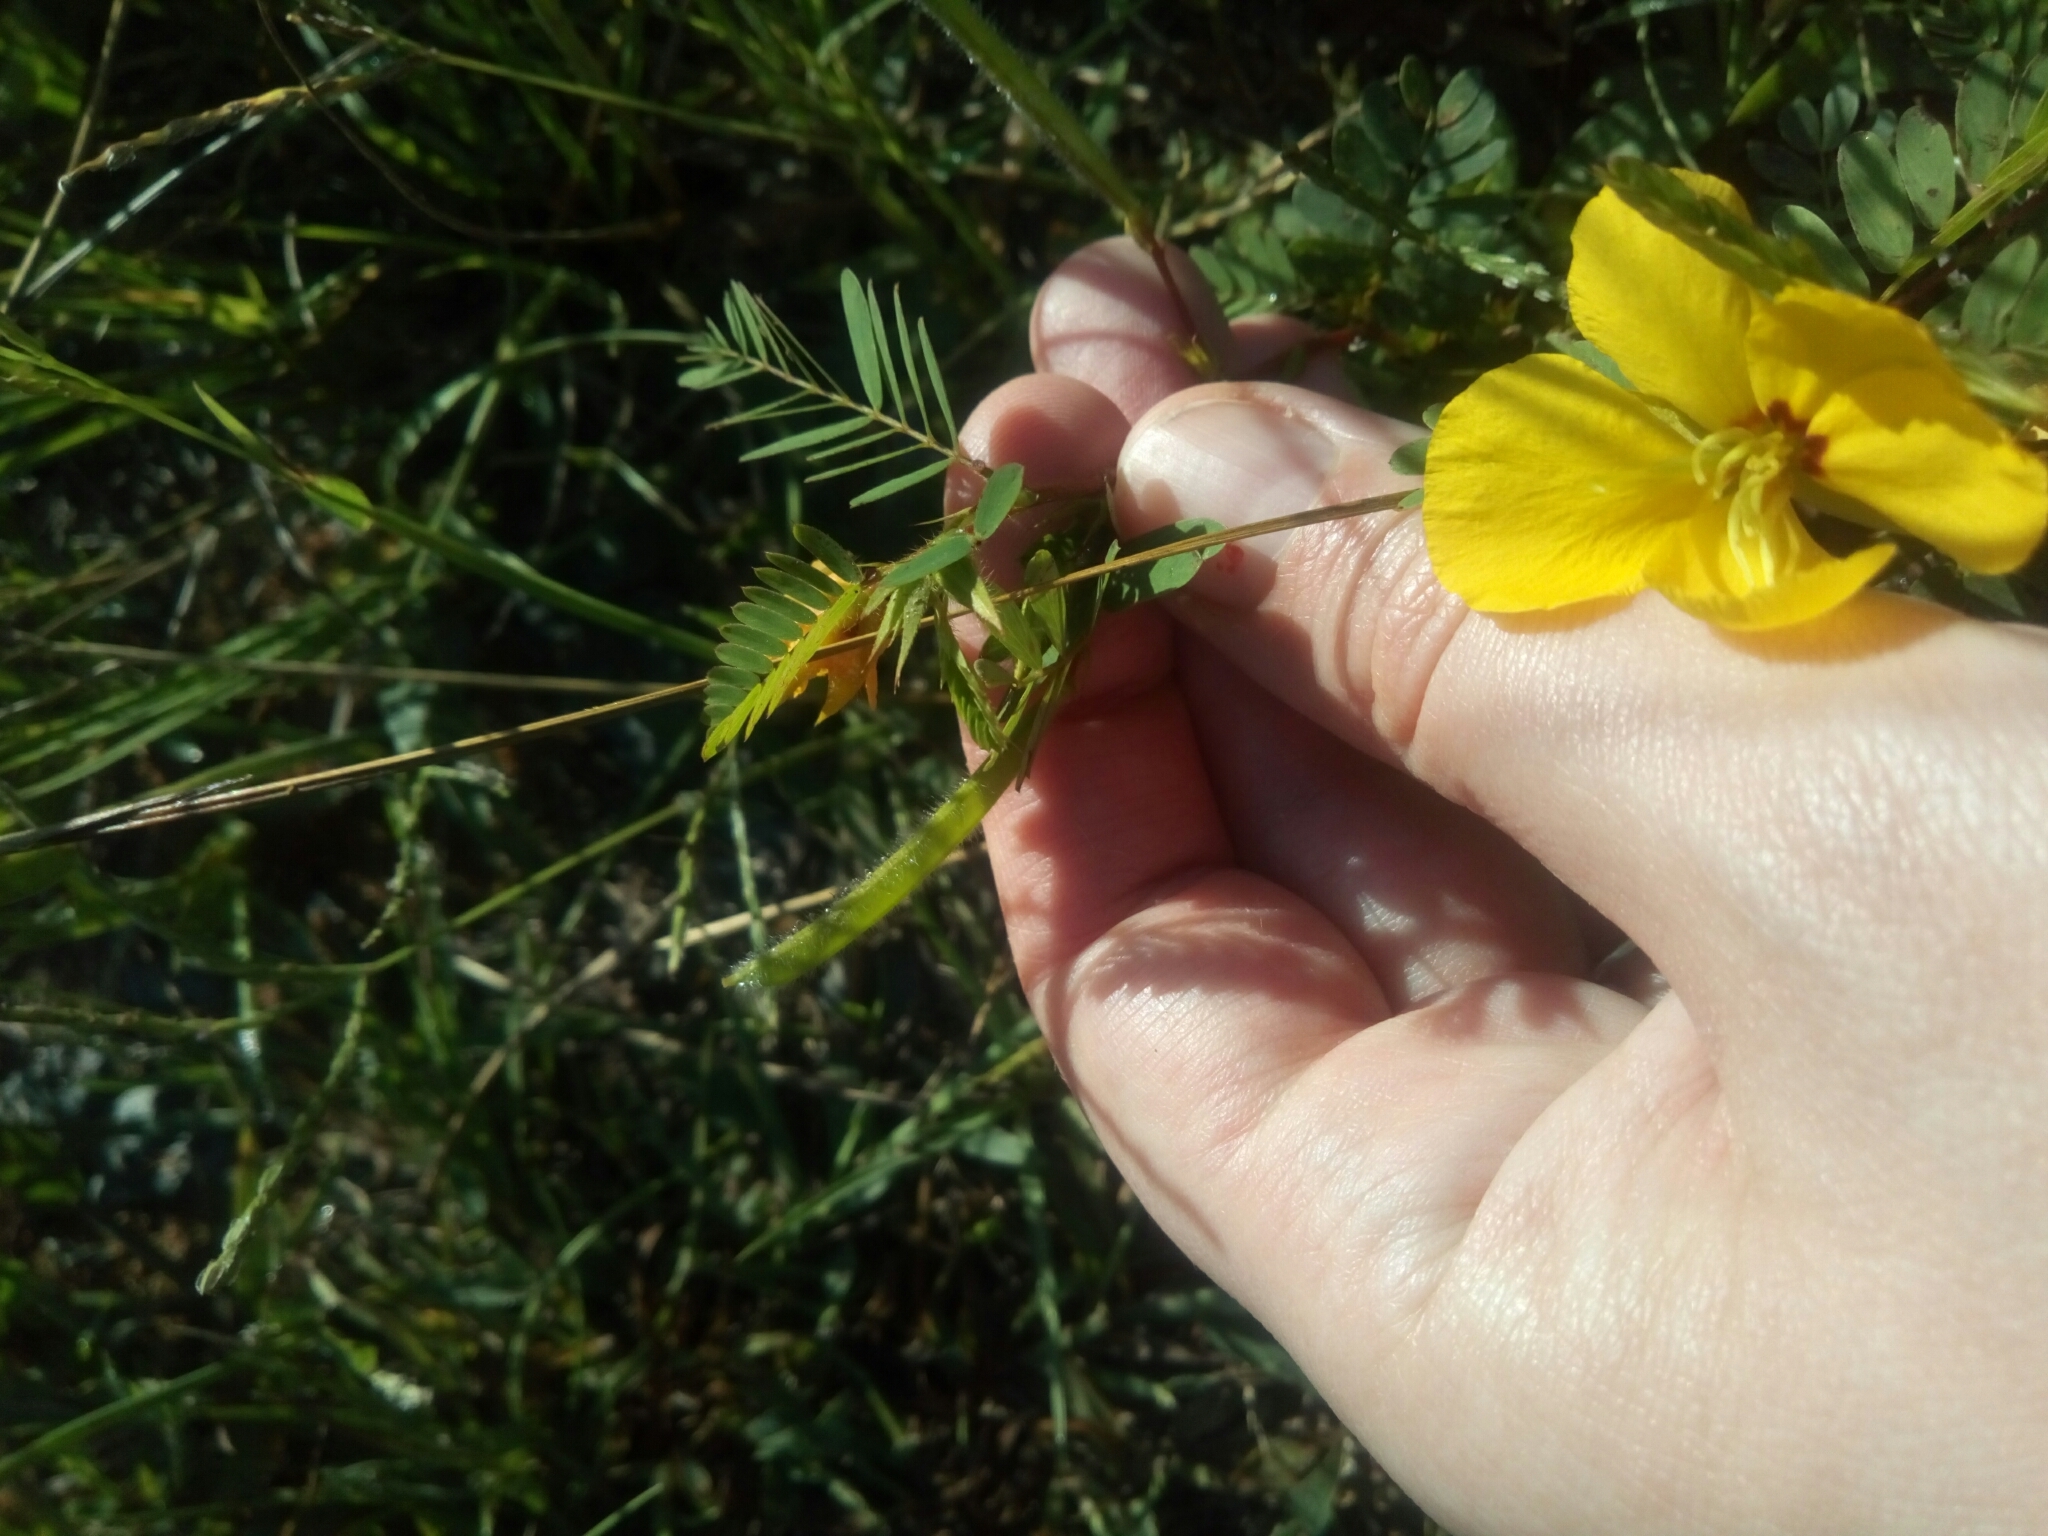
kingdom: Plantae
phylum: Tracheophyta
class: Magnoliopsida
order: Fabales
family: Fabaceae
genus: Chamaecrista
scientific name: Chamaecrista fasciculata
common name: Golden cassia
